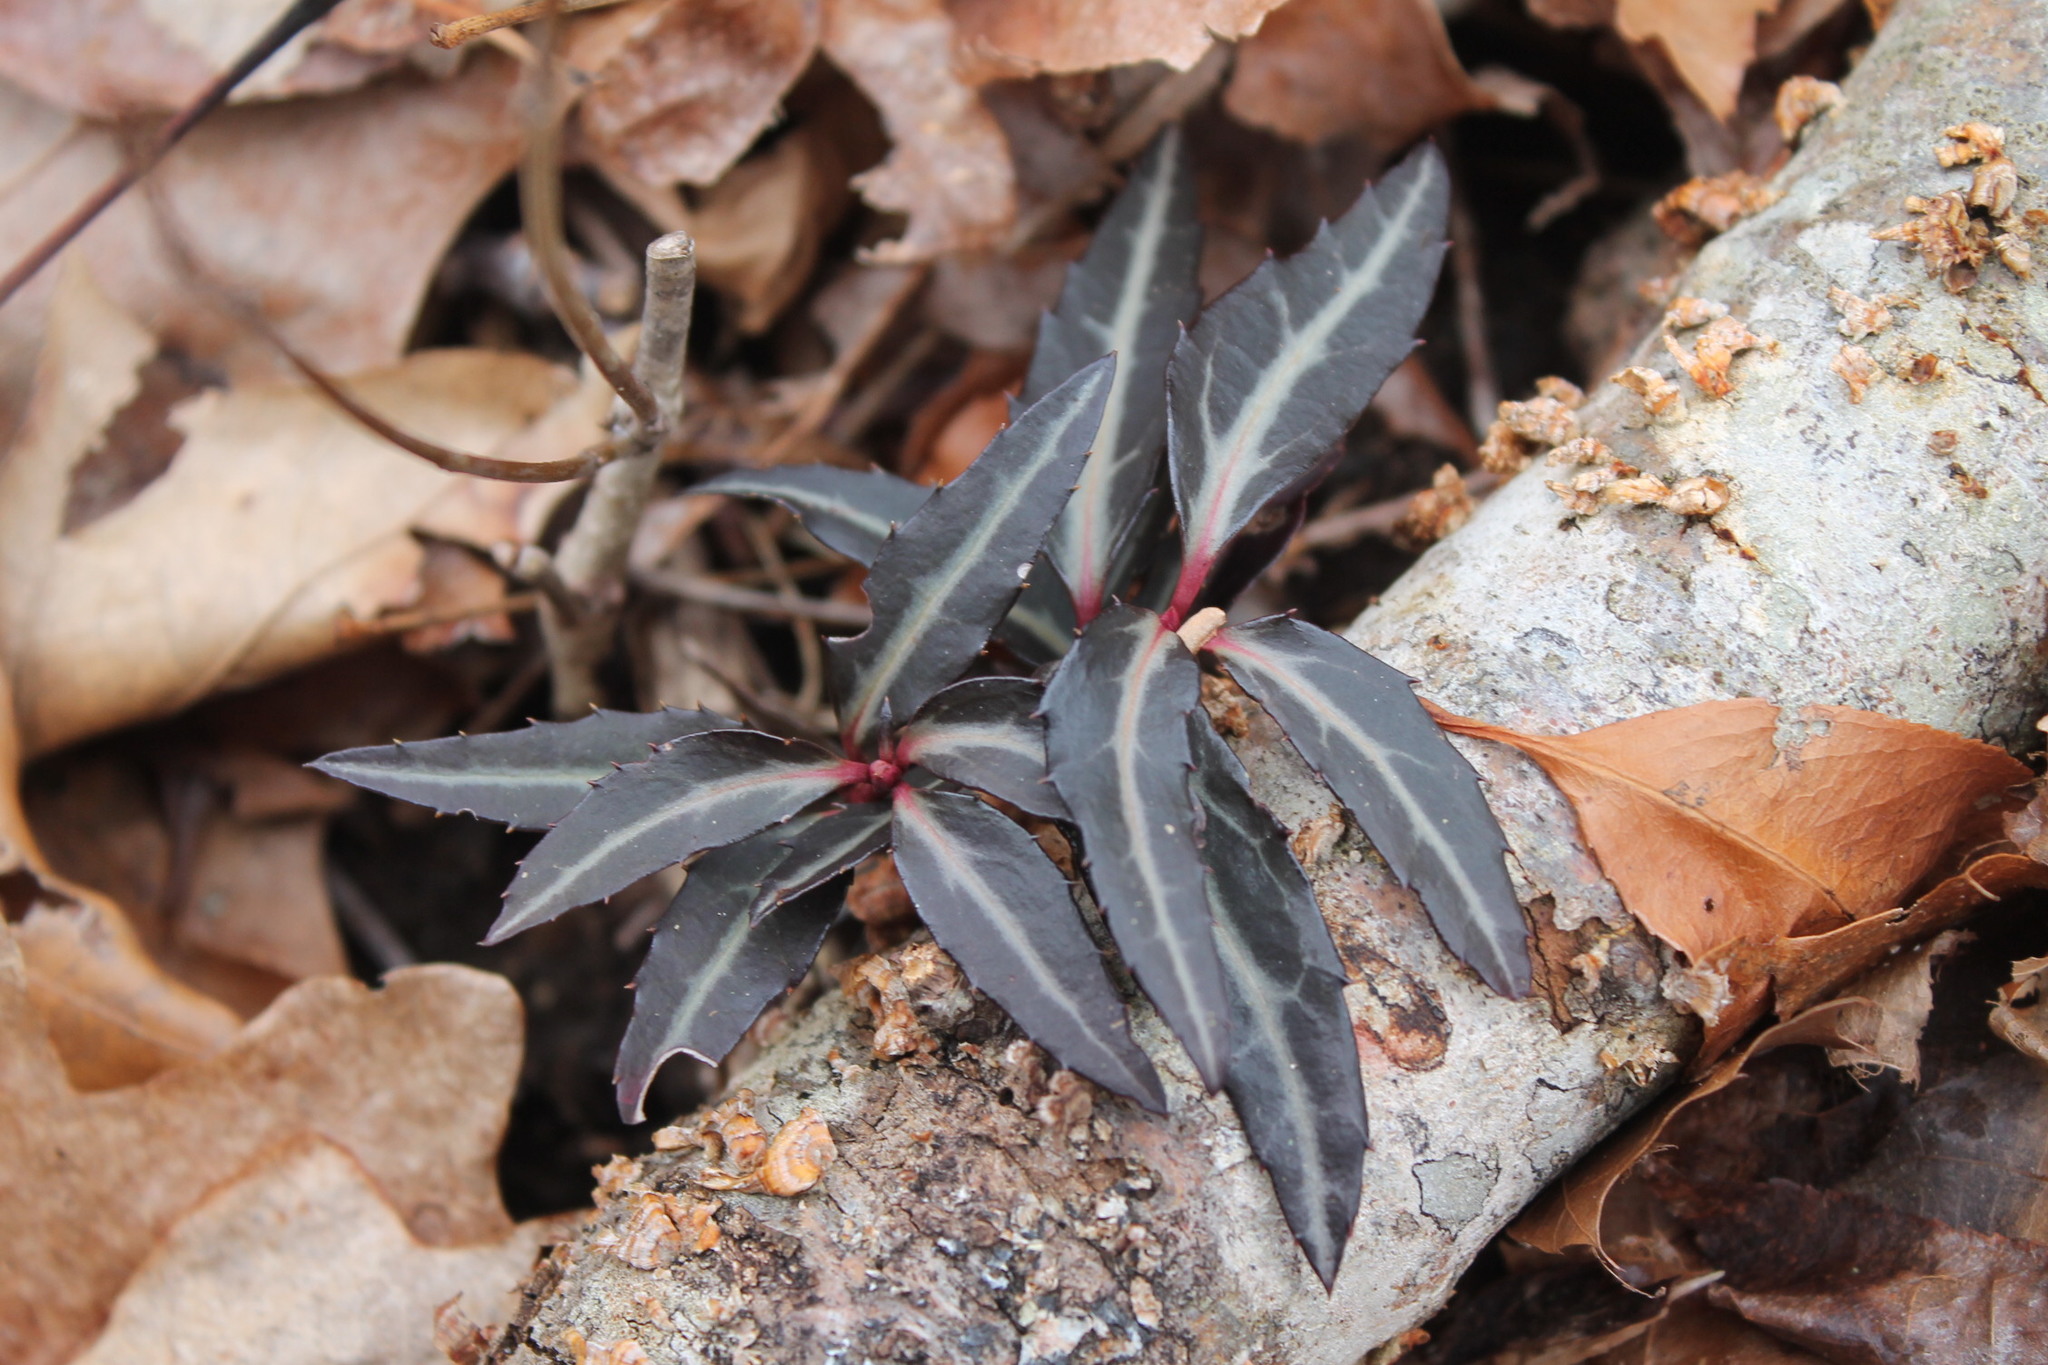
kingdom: Plantae
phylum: Tracheophyta
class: Magnoliopsida
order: Ericales
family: Ericaceae
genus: Chimaphila
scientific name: Chimaphila maculata
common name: Spotted pipsissewa
